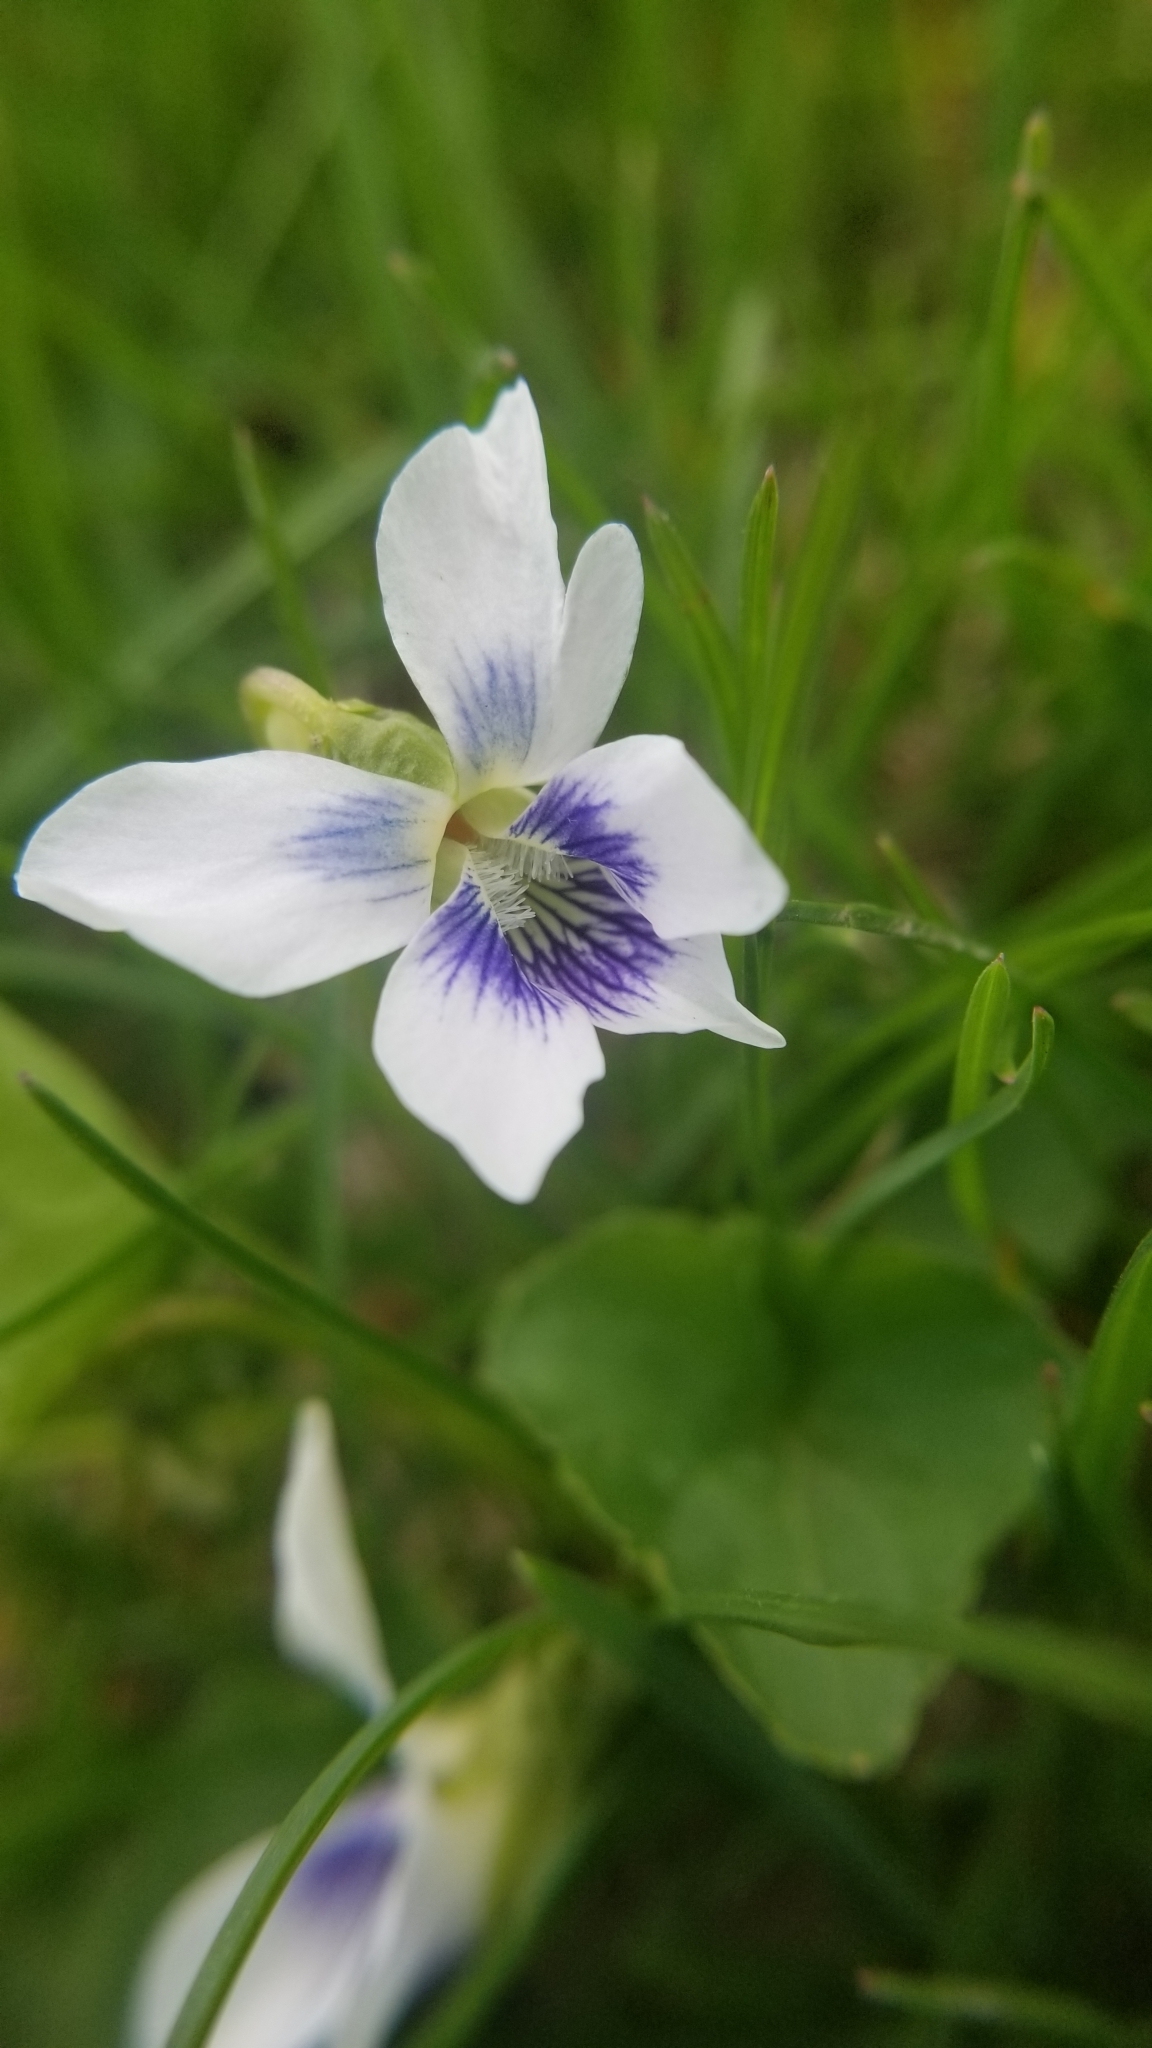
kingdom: Plantae
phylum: Tracheophyta
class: Magnoliopsida
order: Malpighiales
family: Violaceae
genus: Viola
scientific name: Viola sororia
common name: Dooryard violet
